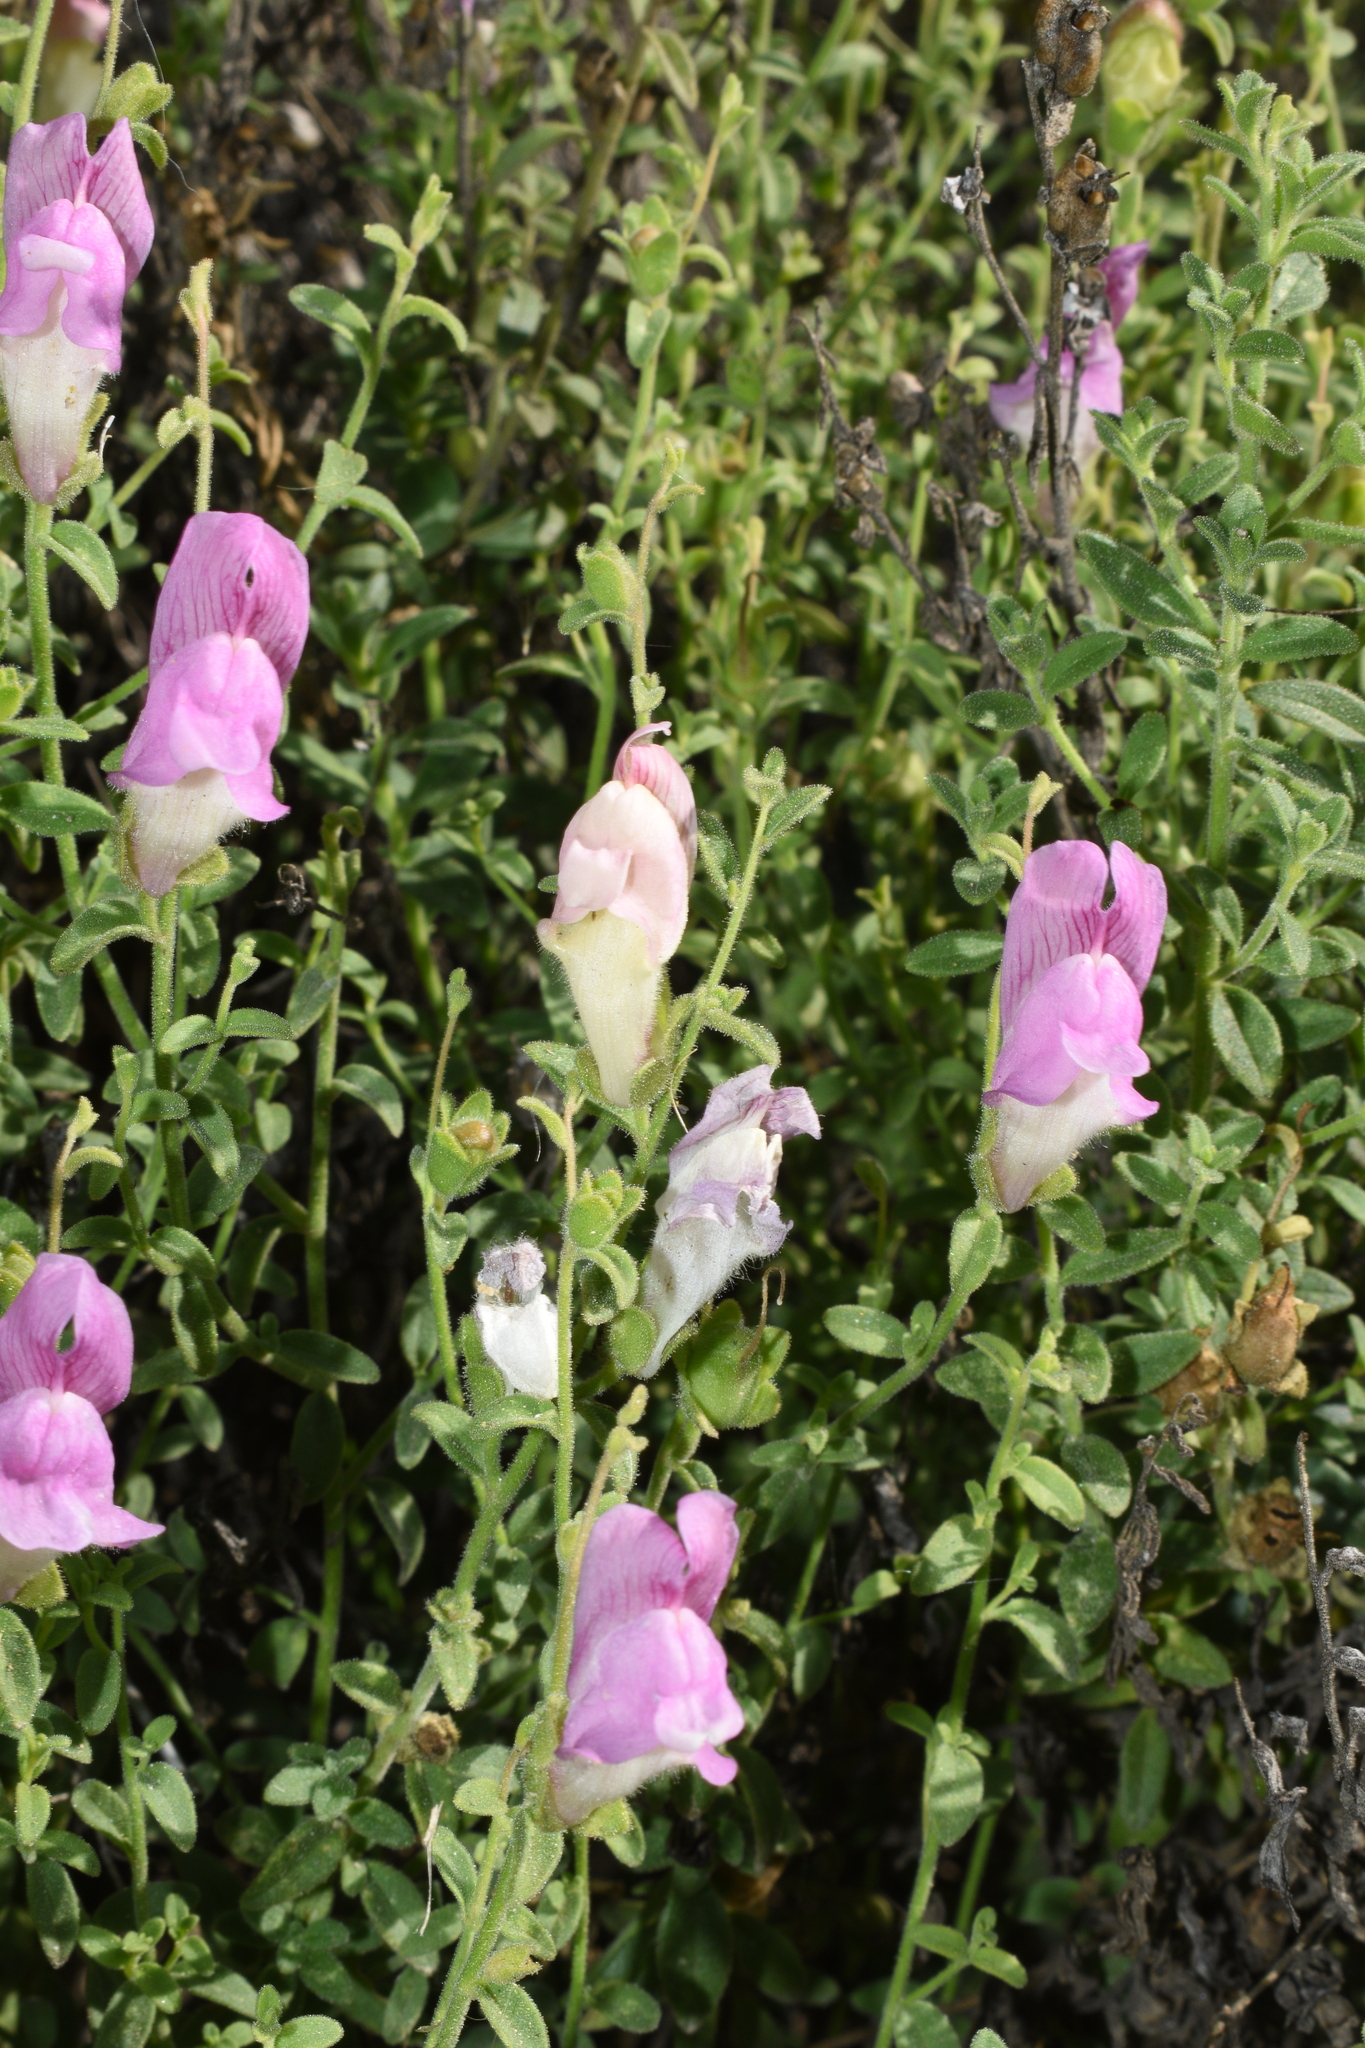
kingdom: Plantae
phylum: Tracheophyta
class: Magnoliopsida
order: Lamiales
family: Plantaginaceae
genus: Antirrhinum
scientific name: Antirrhinum hispanicum
